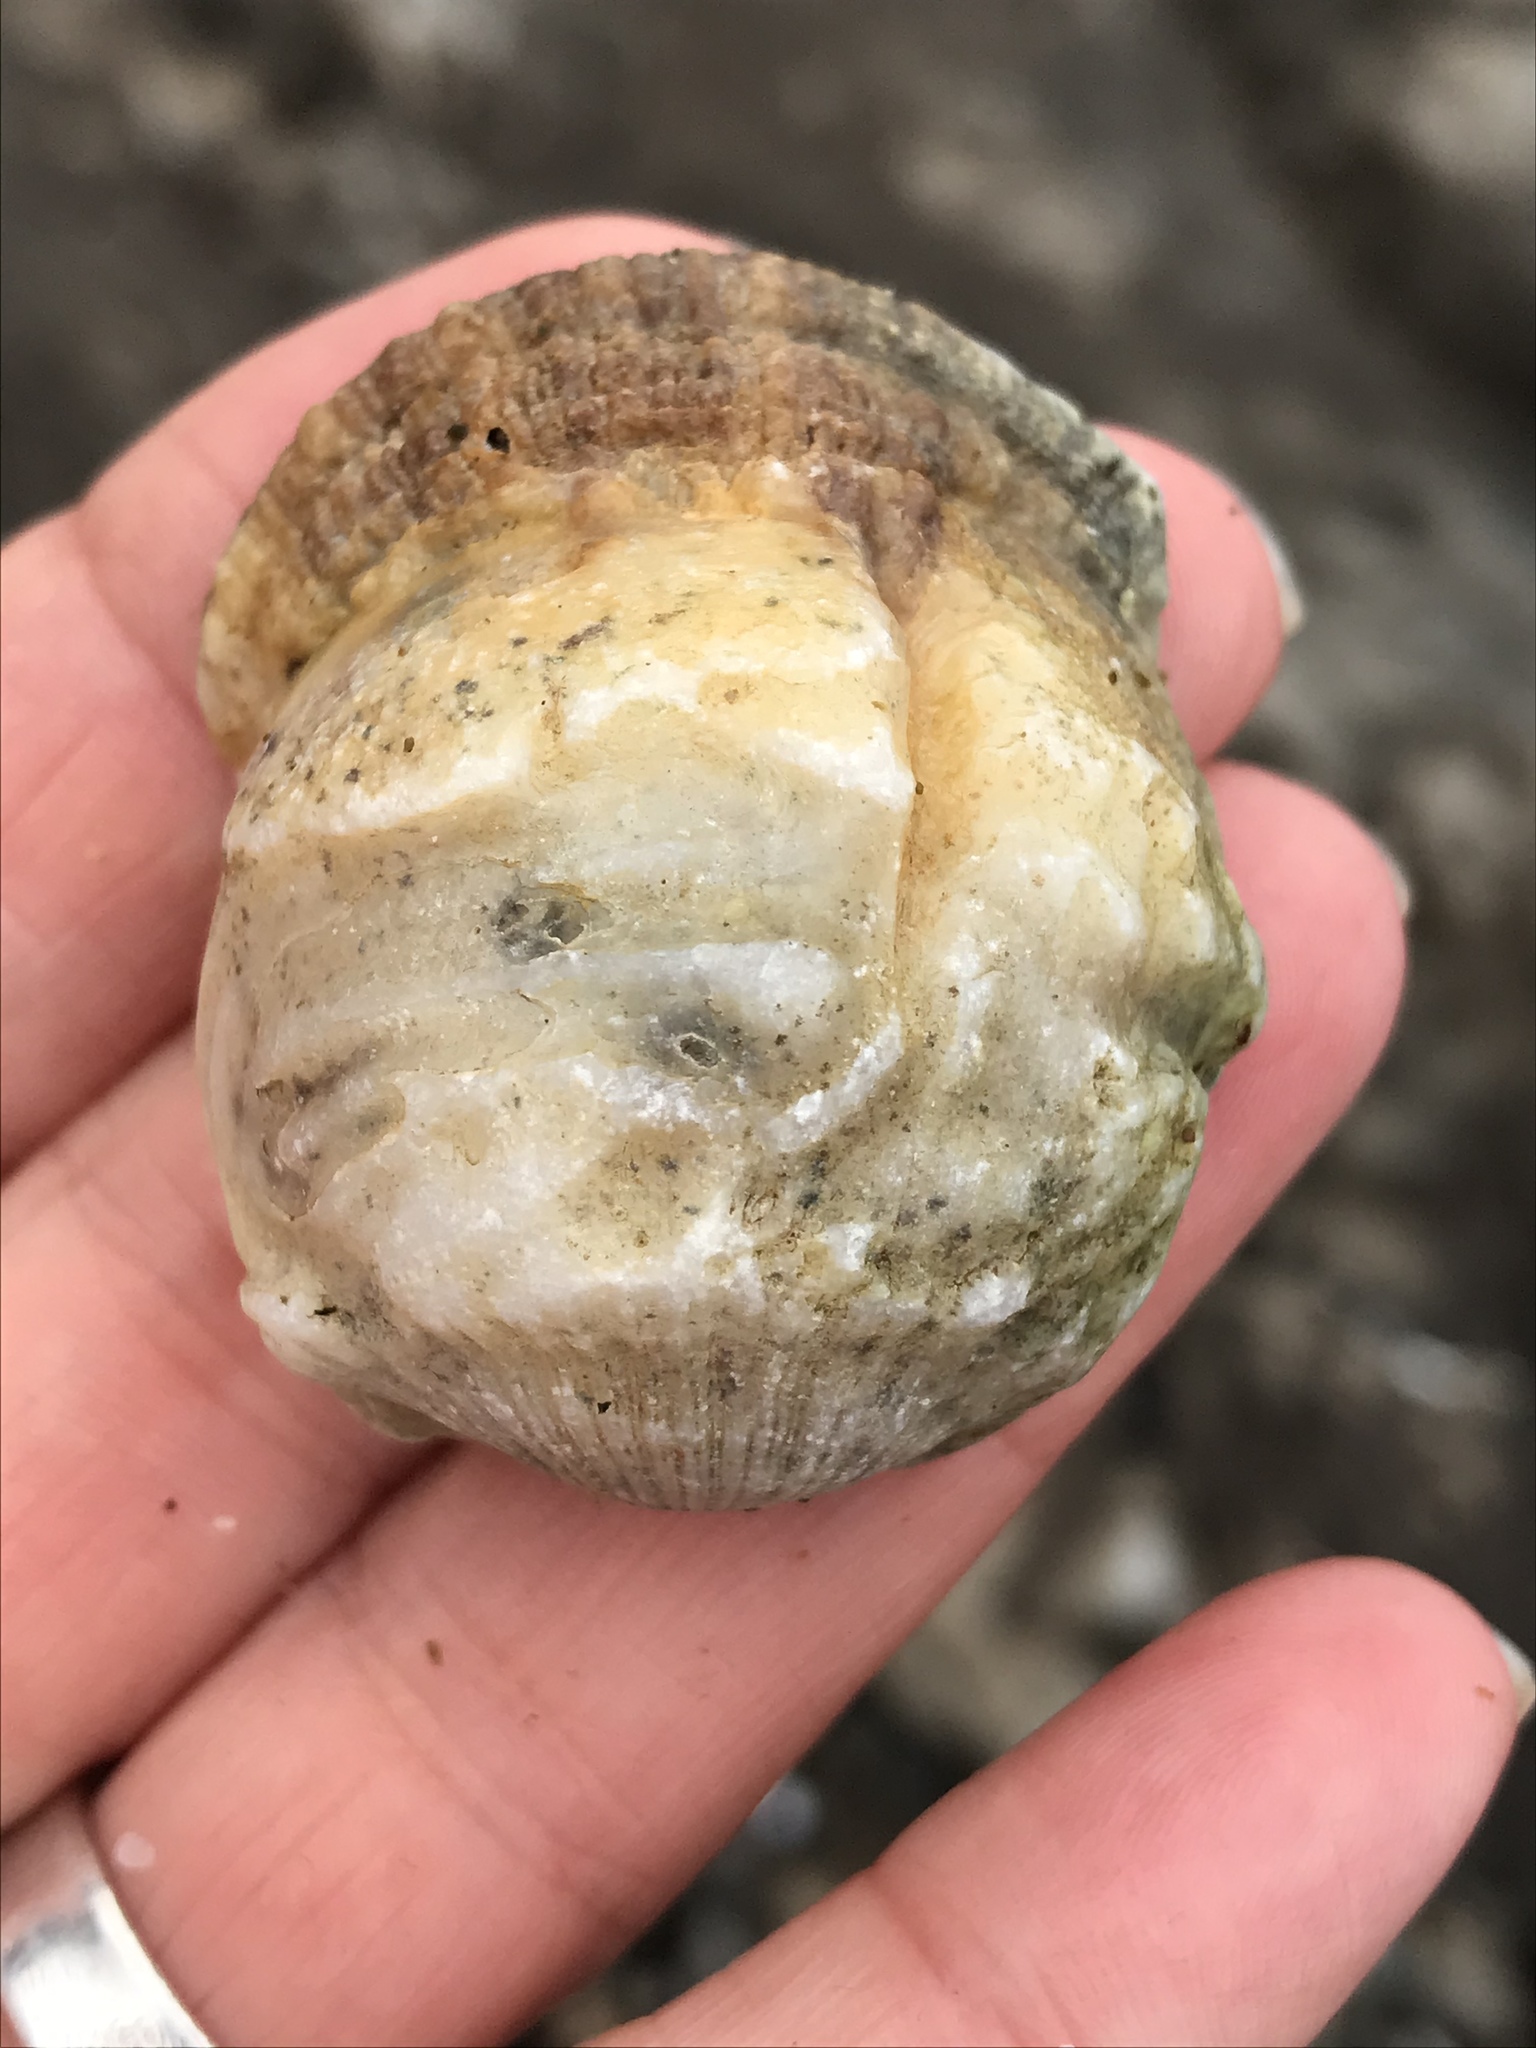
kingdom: Animalia
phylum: Mollusca
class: Bivalvia
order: Pectinida
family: Pectinidae
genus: Crassadoma
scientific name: Crassadoma gigantea
